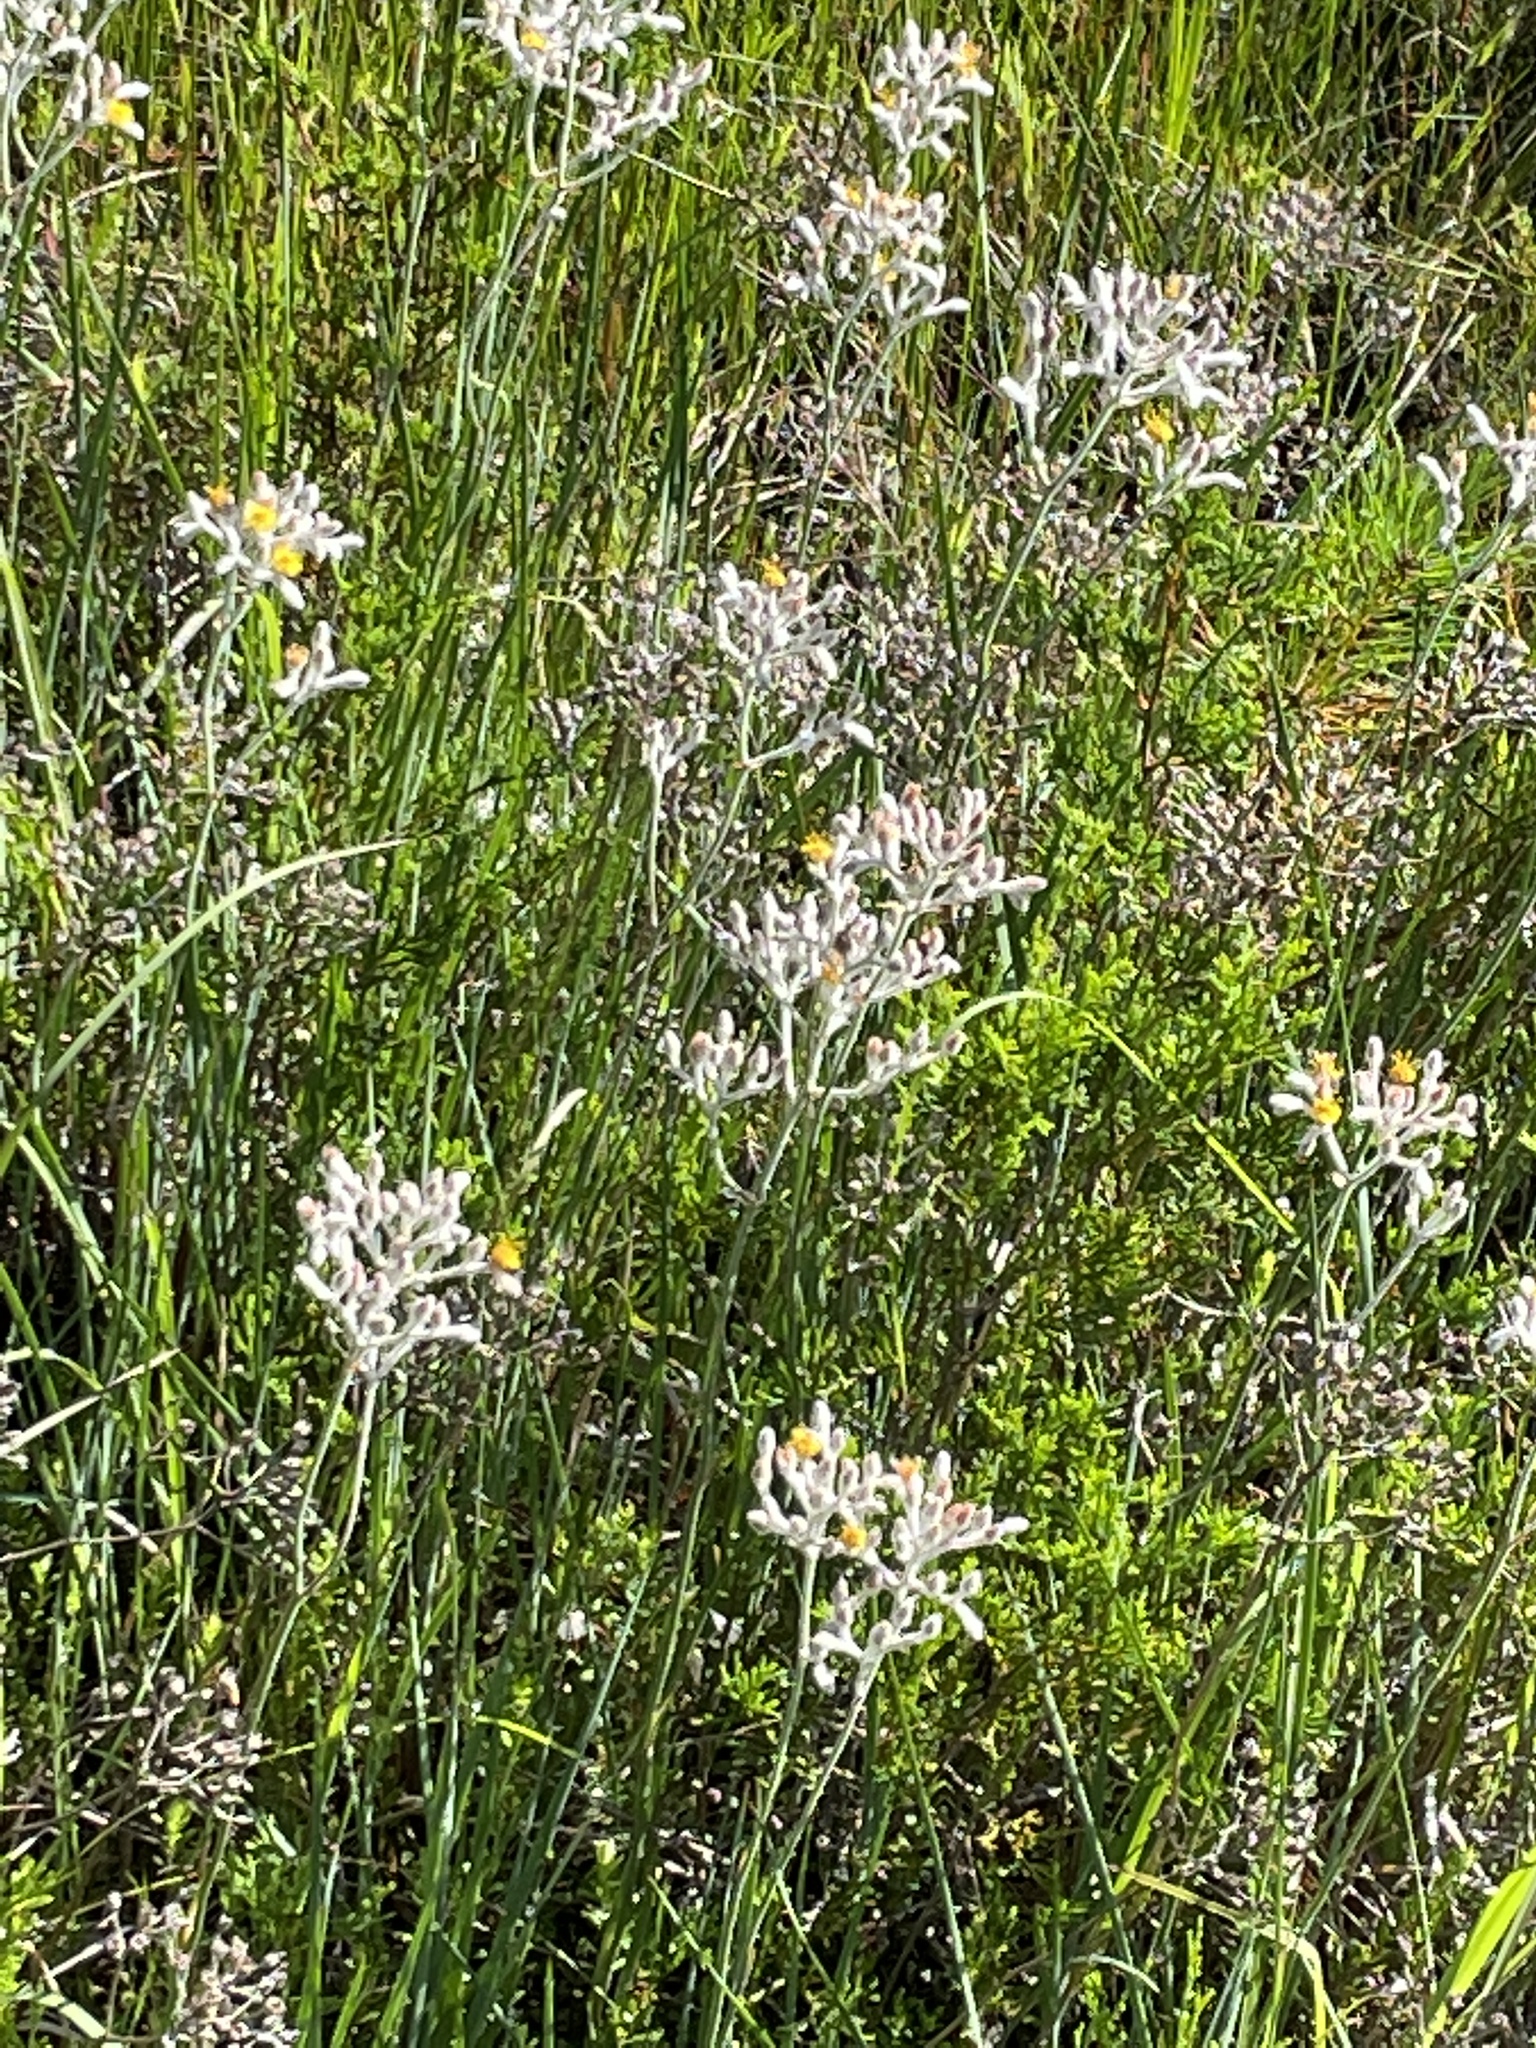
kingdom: Plantae
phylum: Tracheophyta
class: Liliopsida
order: Commelinales
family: Haemodoraceae
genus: Lachnanthes
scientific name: Lachnanthes caroliana
